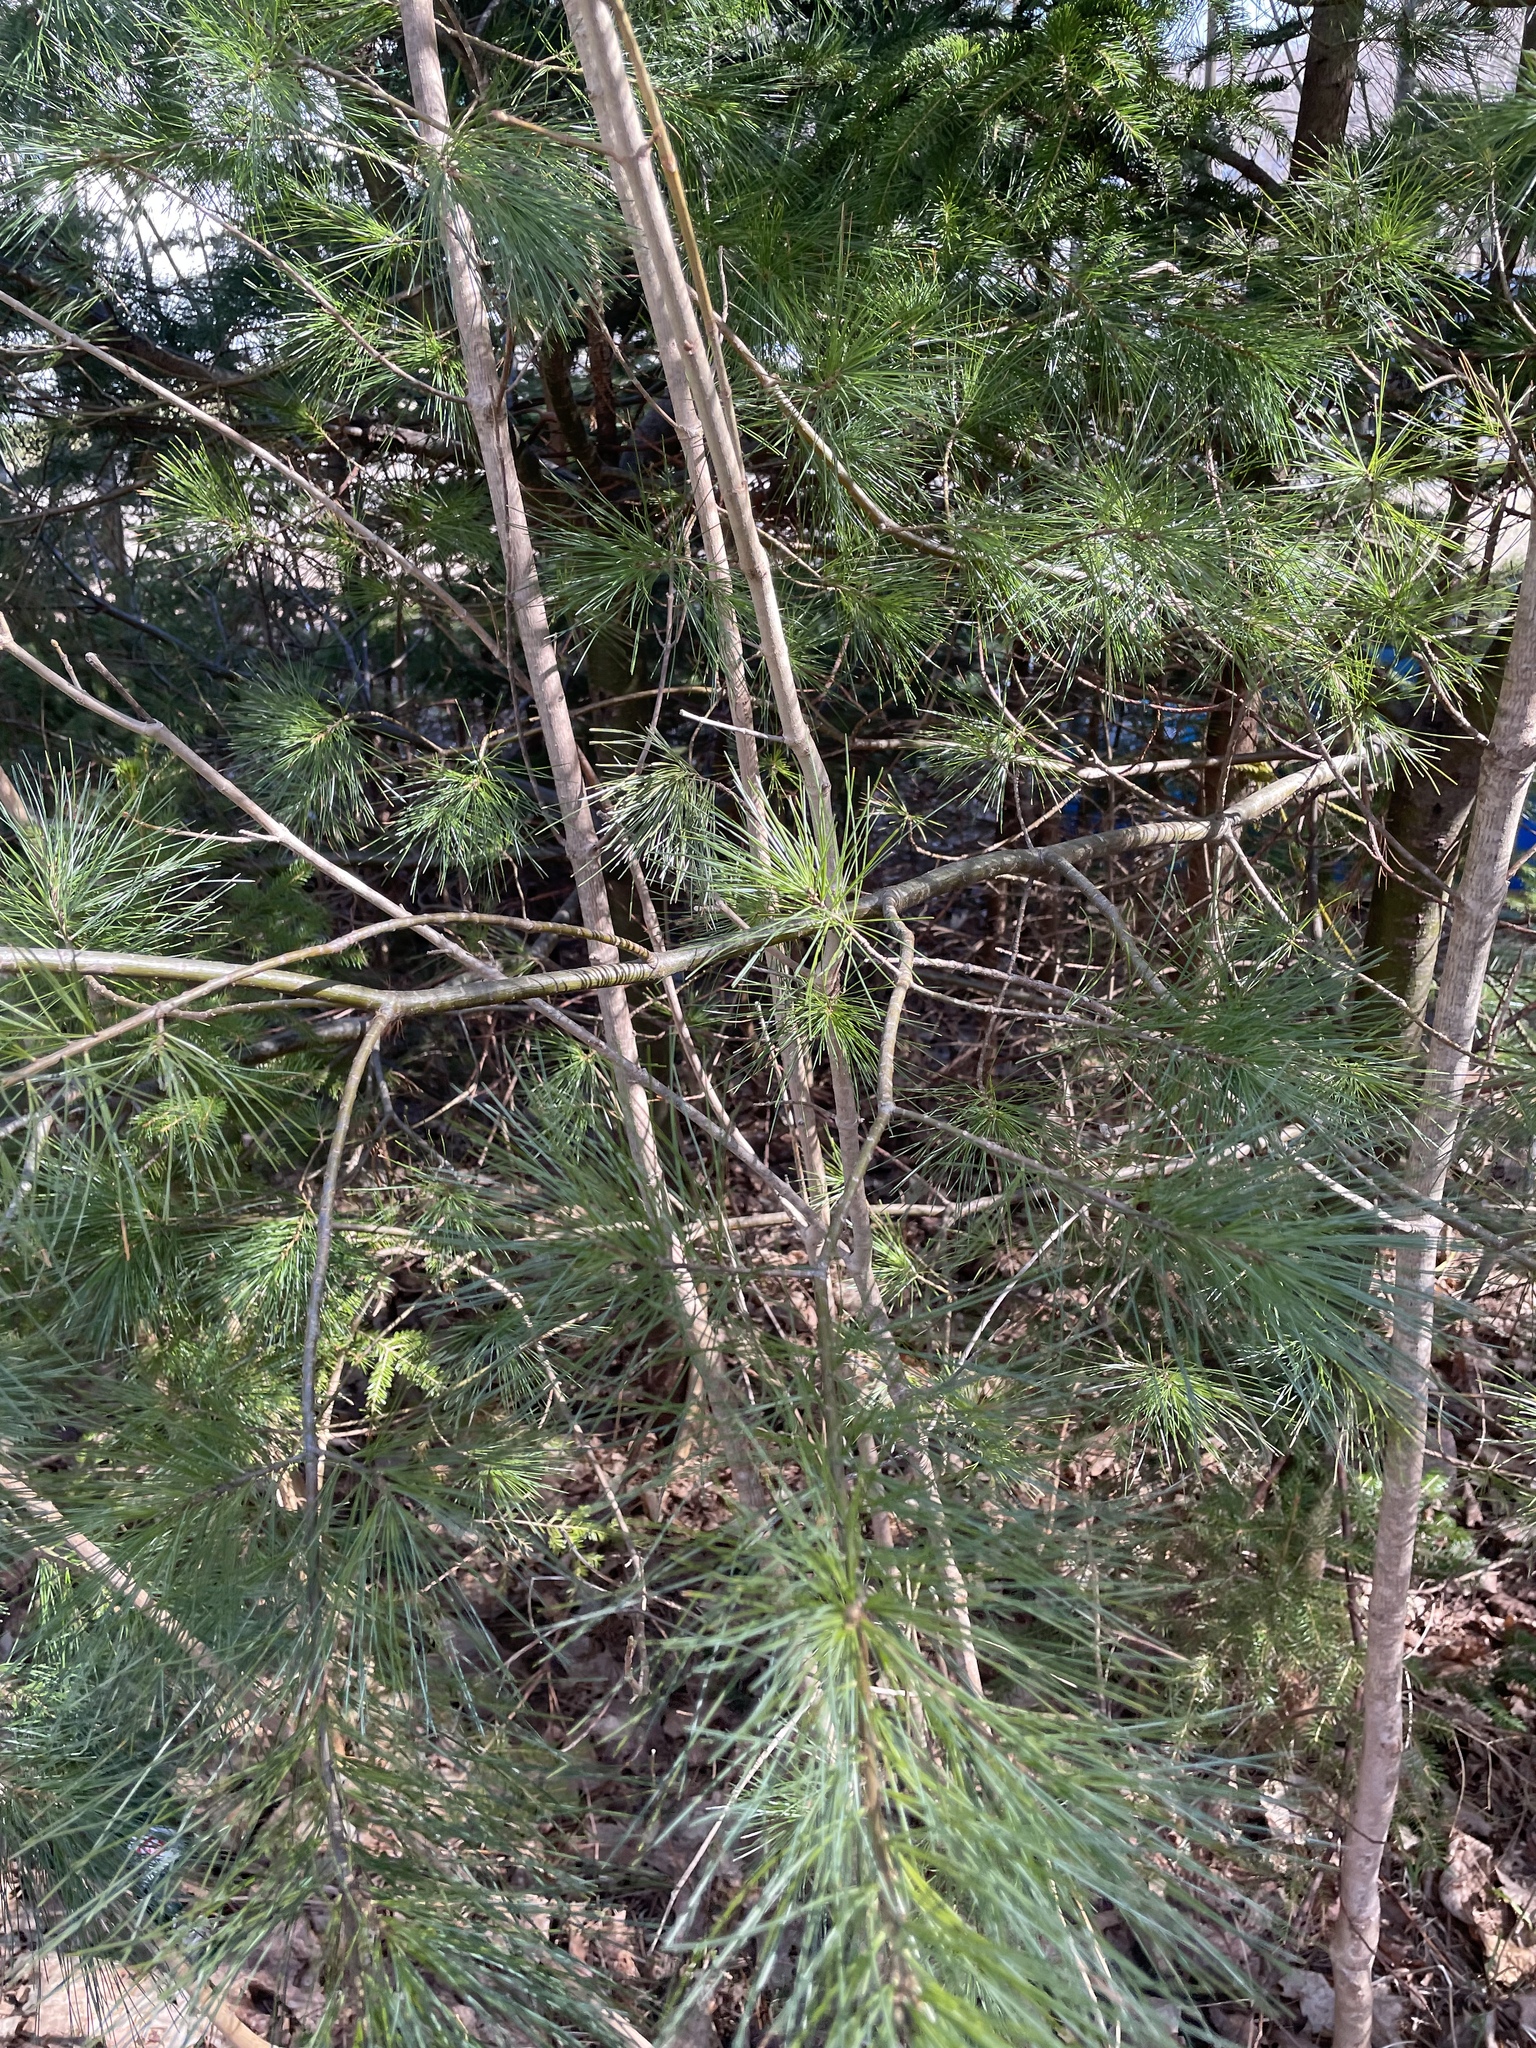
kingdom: Plantae
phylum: Tracheophyta
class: Pinopsida
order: Pinales
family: Pinaceae
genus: Pinus
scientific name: Pinus strobus
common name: Weymouth pine
